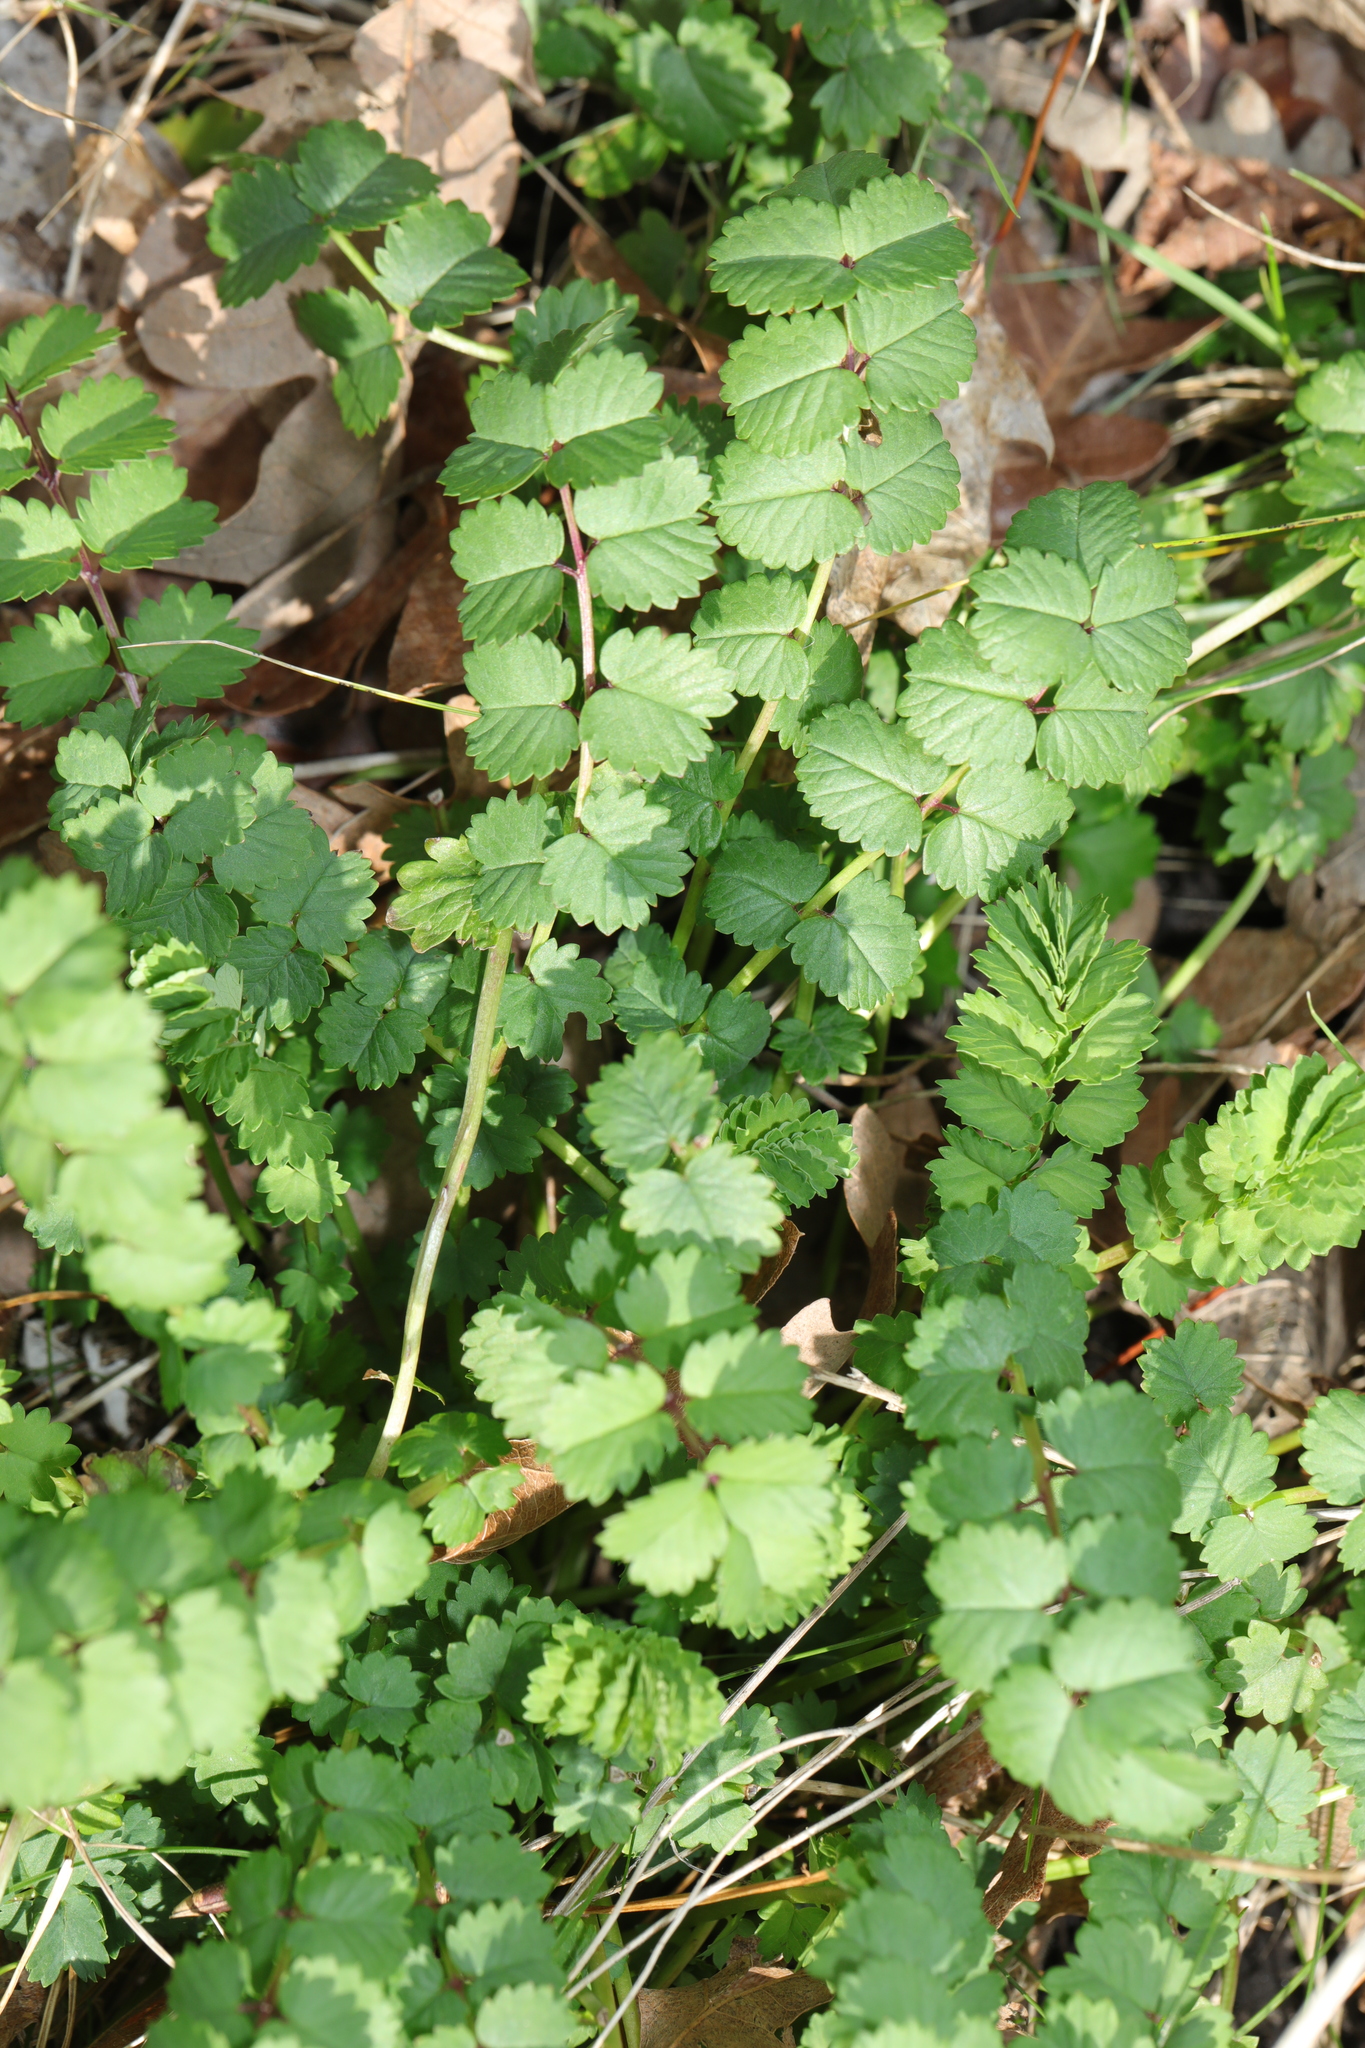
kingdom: Plantae
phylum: Tracheophyta
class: Magnoliopsida
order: Rosales
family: Rosaceae
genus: Poterium
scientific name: Poterium sanguisorba
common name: Salad burnet
